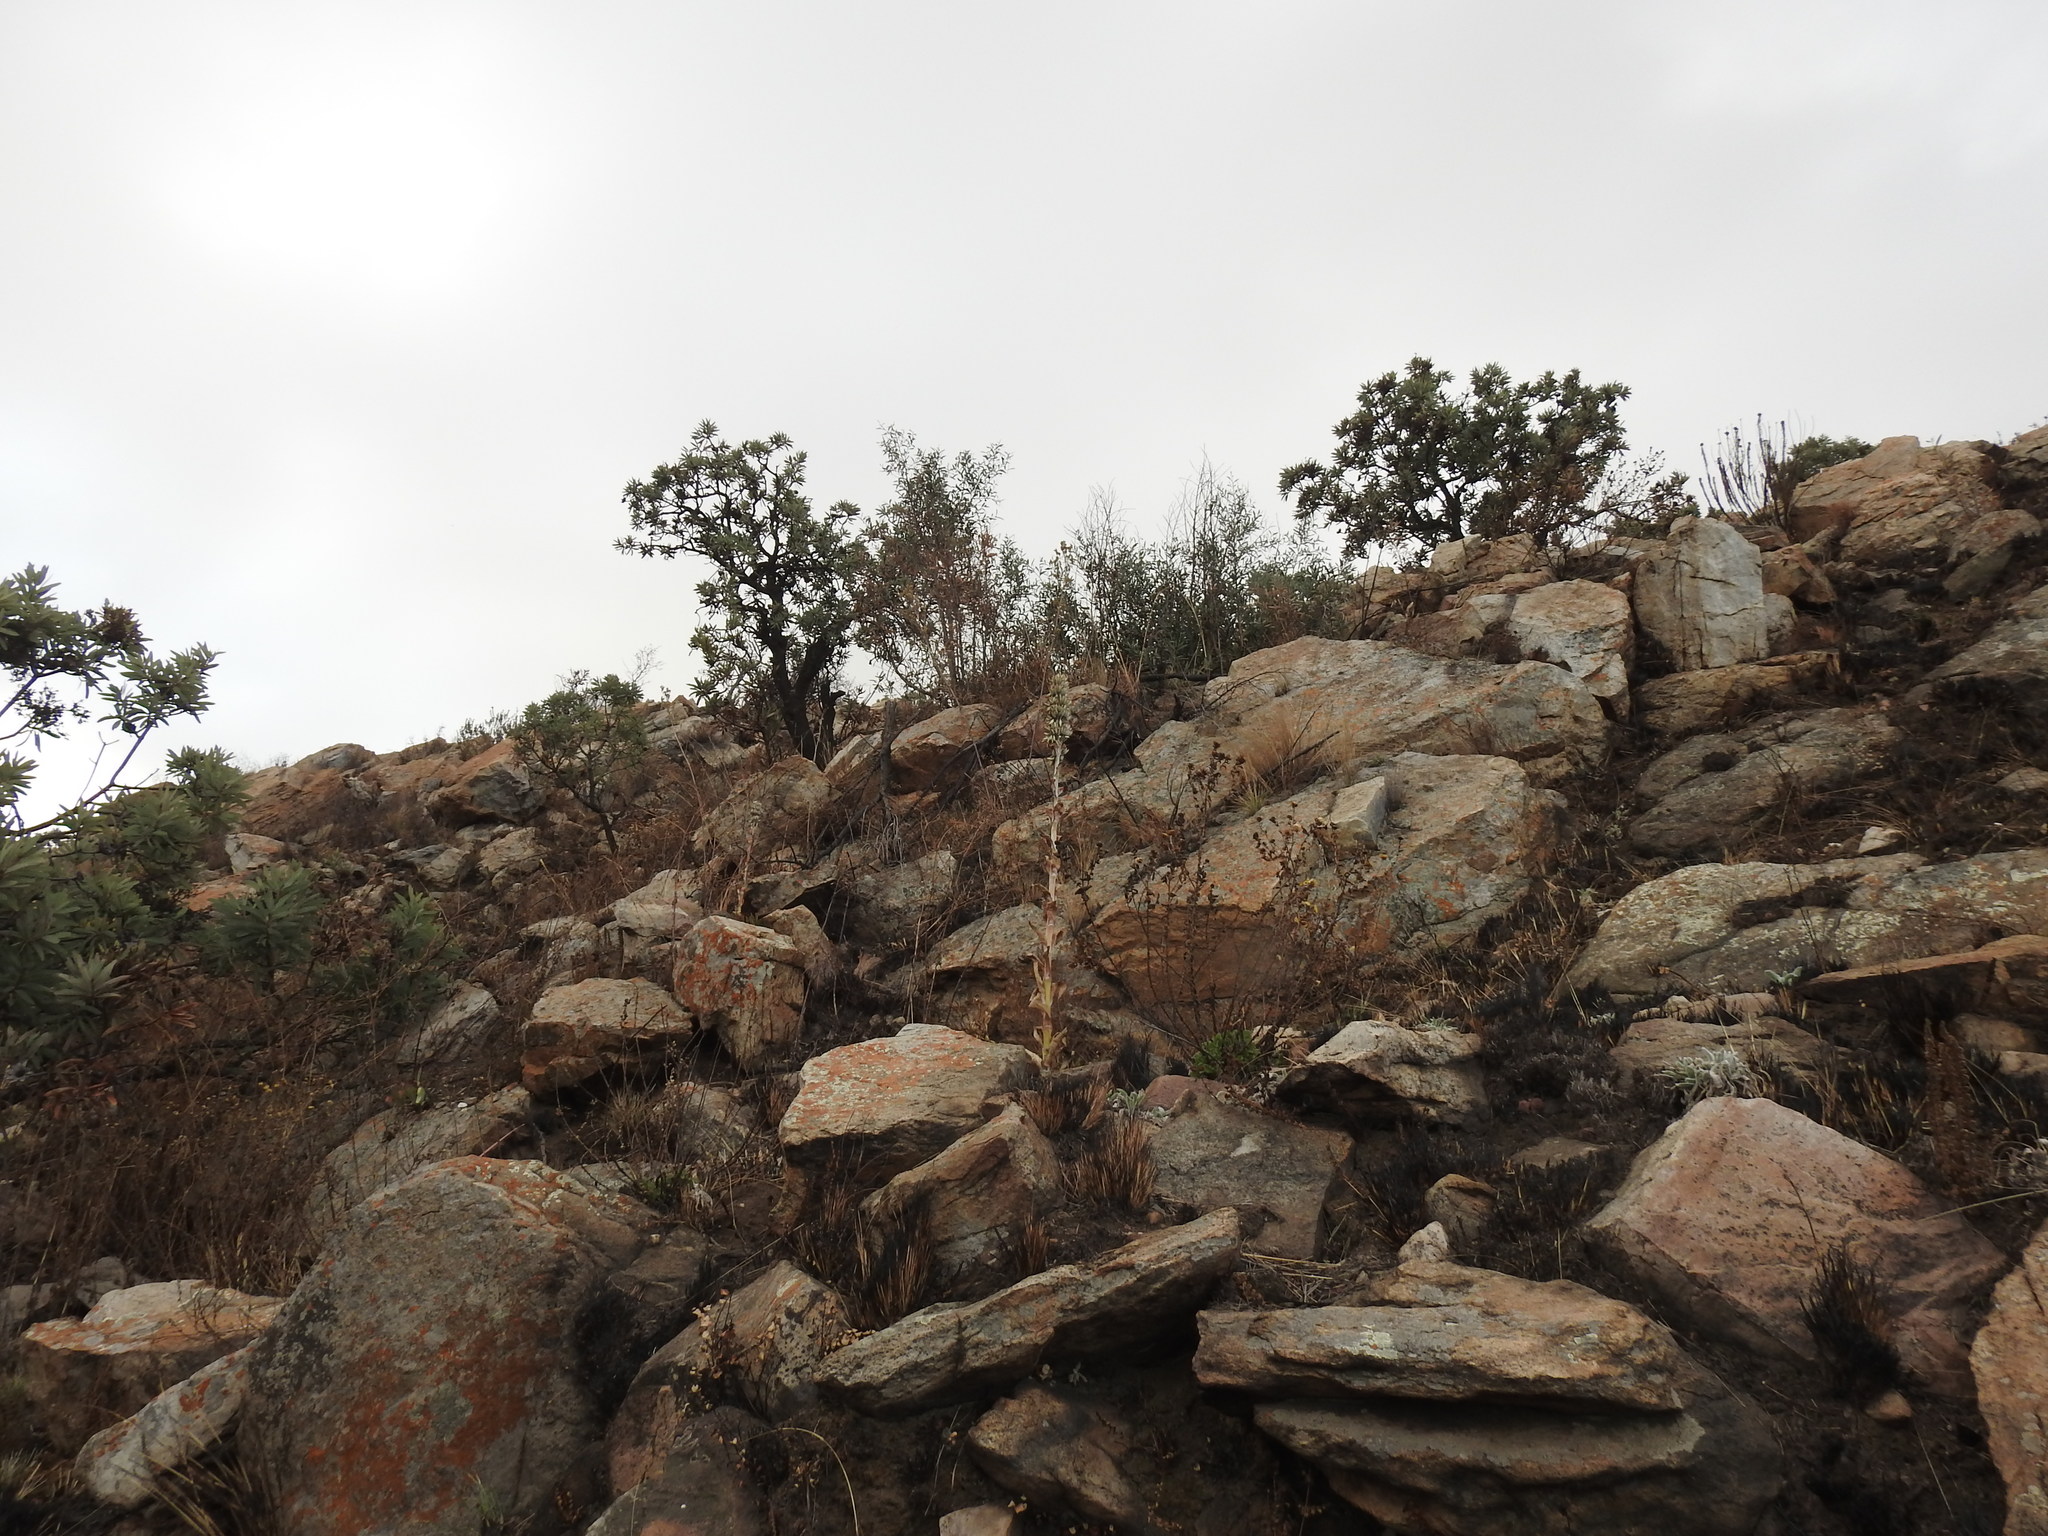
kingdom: Plantae
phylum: Tracheophyta
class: Magnoliopsida
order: Saxifragales
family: Crassulaceae
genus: Kalanchoe
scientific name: Kalanchoe thyrsiflora
